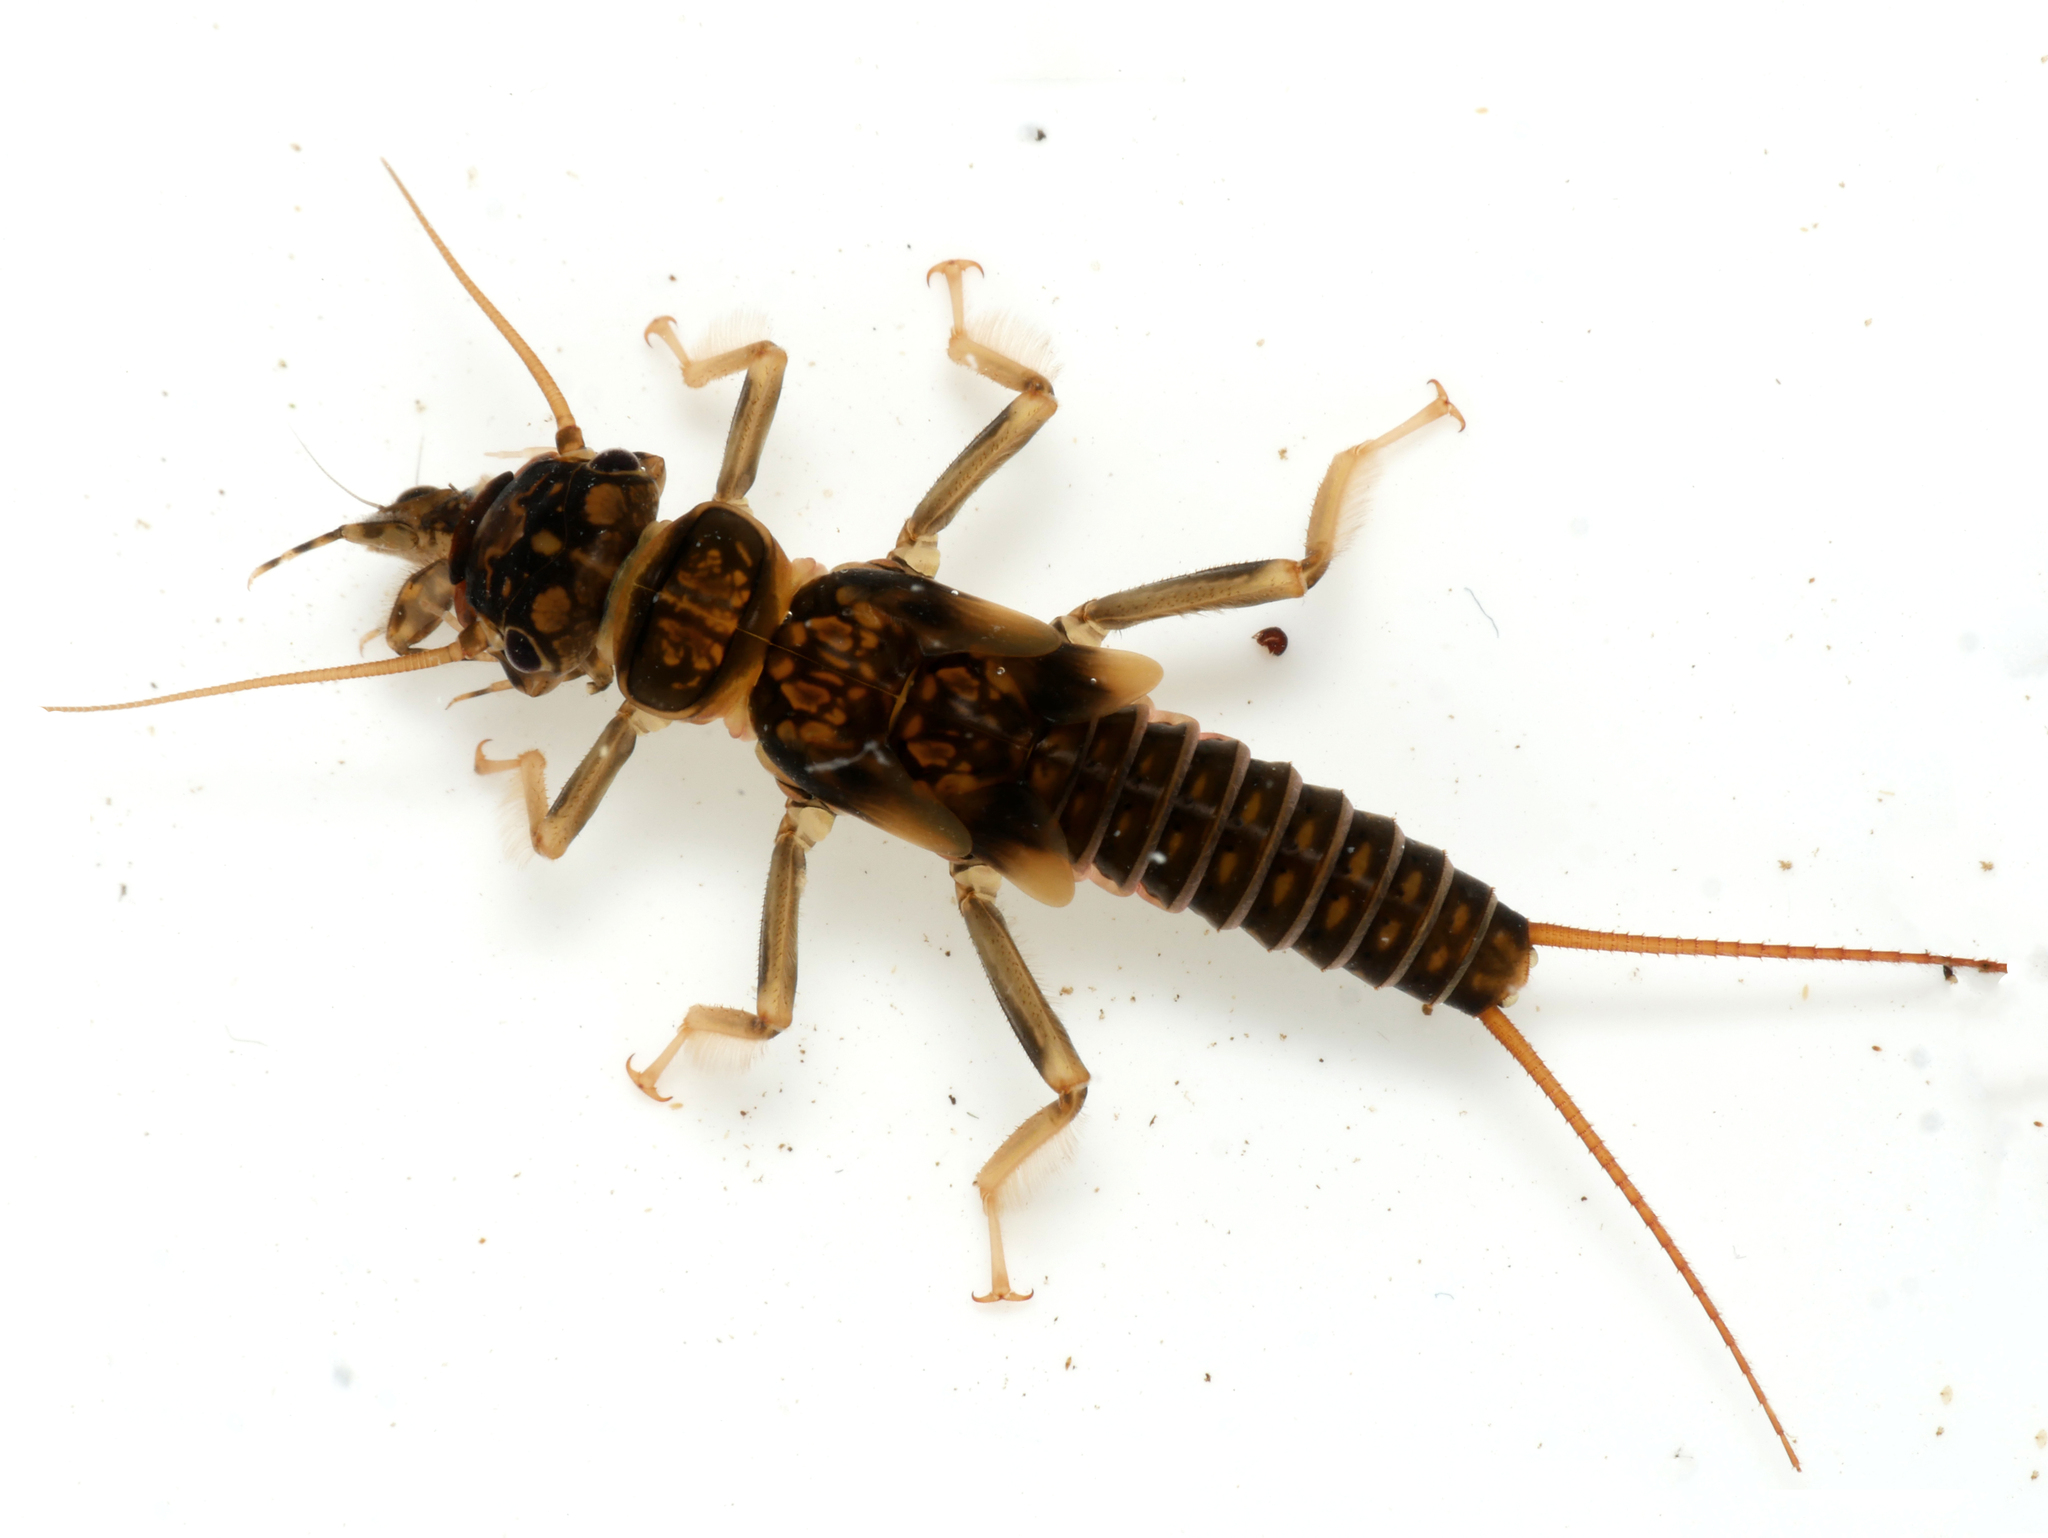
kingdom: Animalia
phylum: Arthropoda
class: Insecta
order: Plecoptera
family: Perlodidae
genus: Perlodes
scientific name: Perlodes microcephalus
